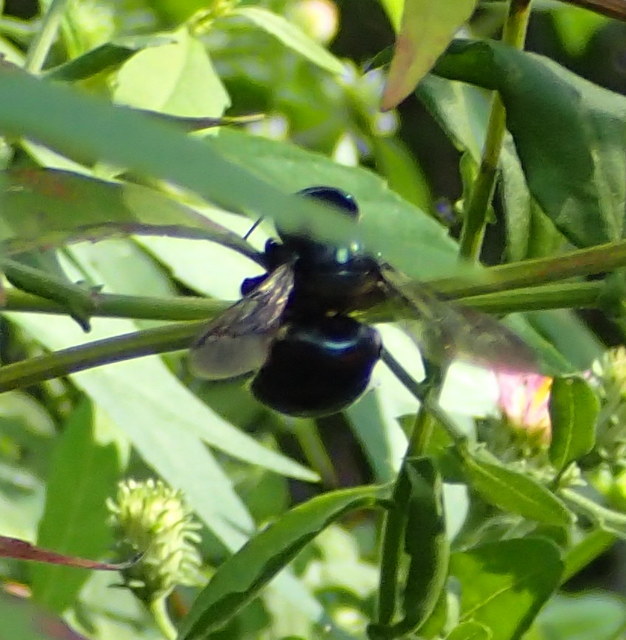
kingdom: Animalia
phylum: Arthropoda
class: Insecta
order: Hymenoptera
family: Apidae
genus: Xylocopa
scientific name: Xylocopa micans
